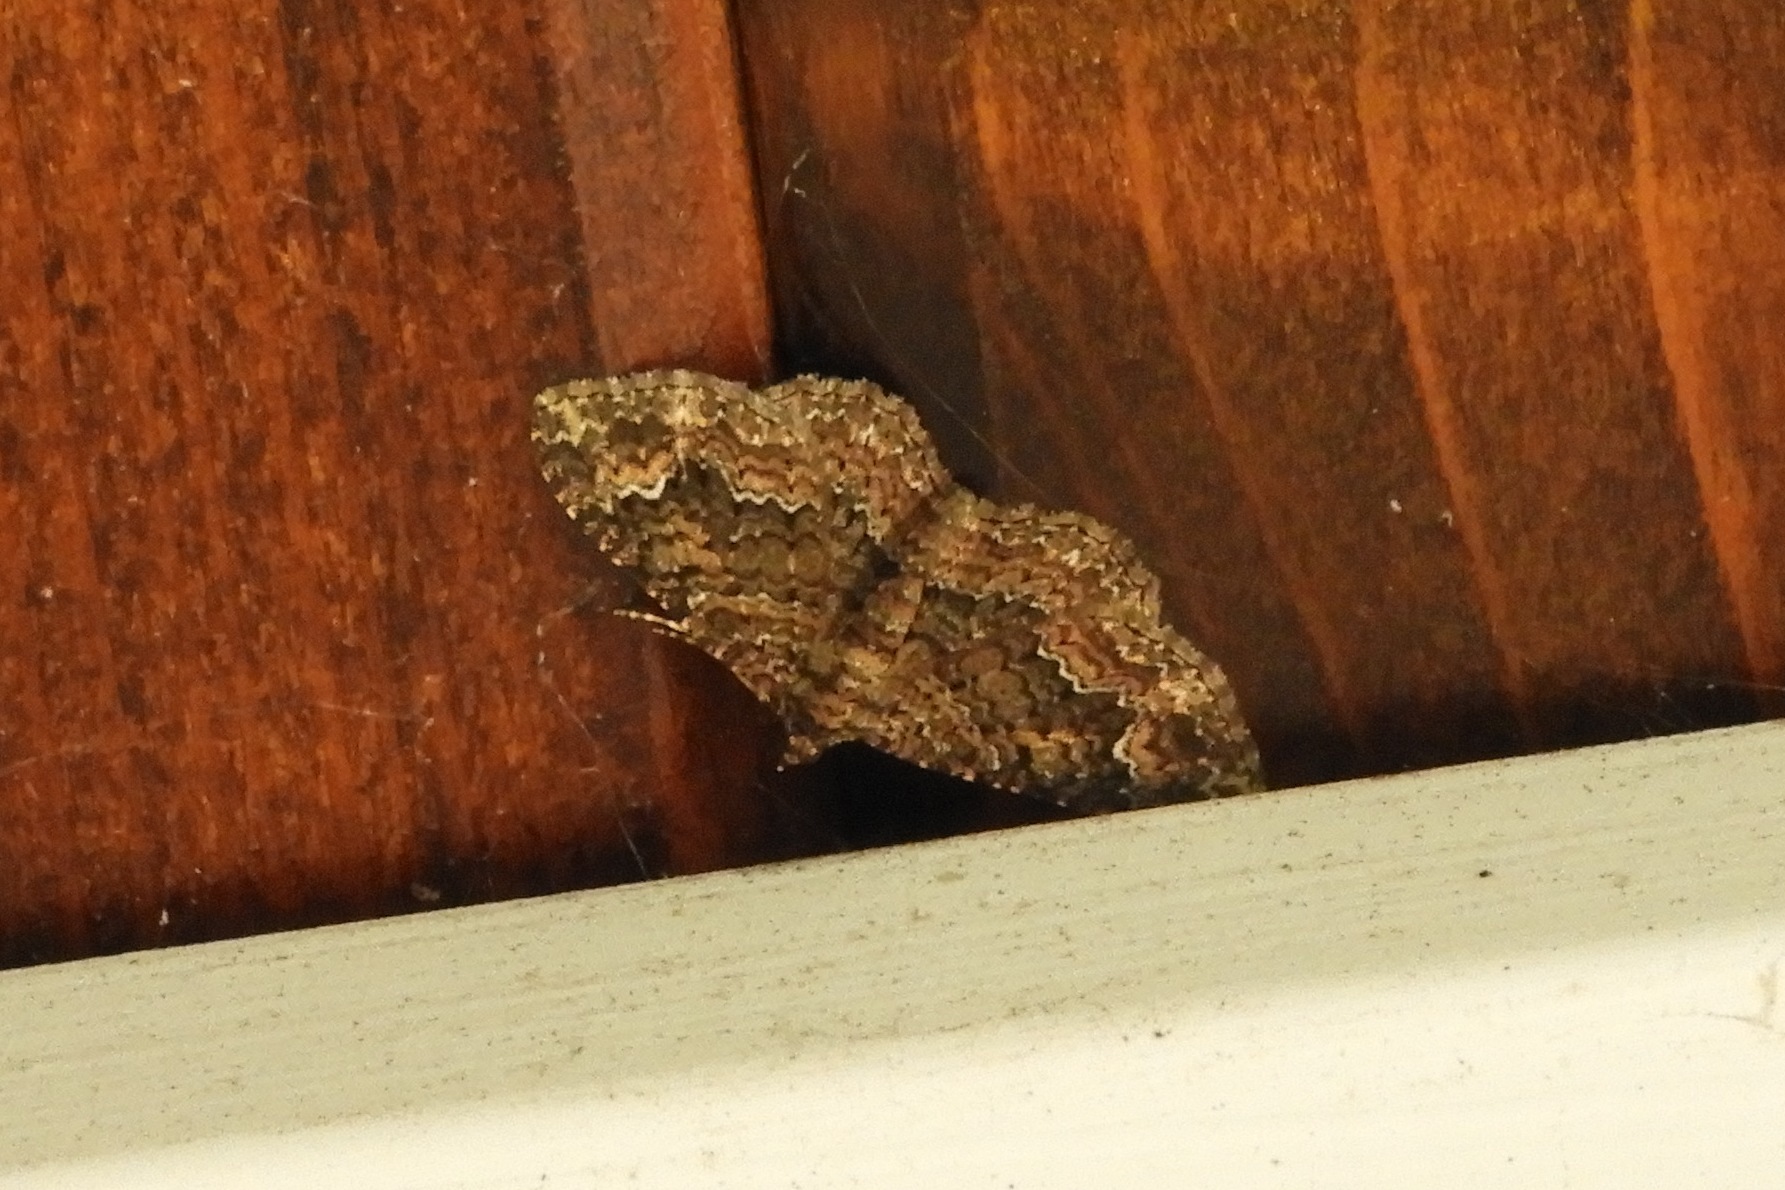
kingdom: Animalia
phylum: Arthropoda
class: Insecta
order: Lepidoptera
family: Geometridae
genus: Disclisioprocta
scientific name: Disclisioprocta stellata
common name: Somber carpet
